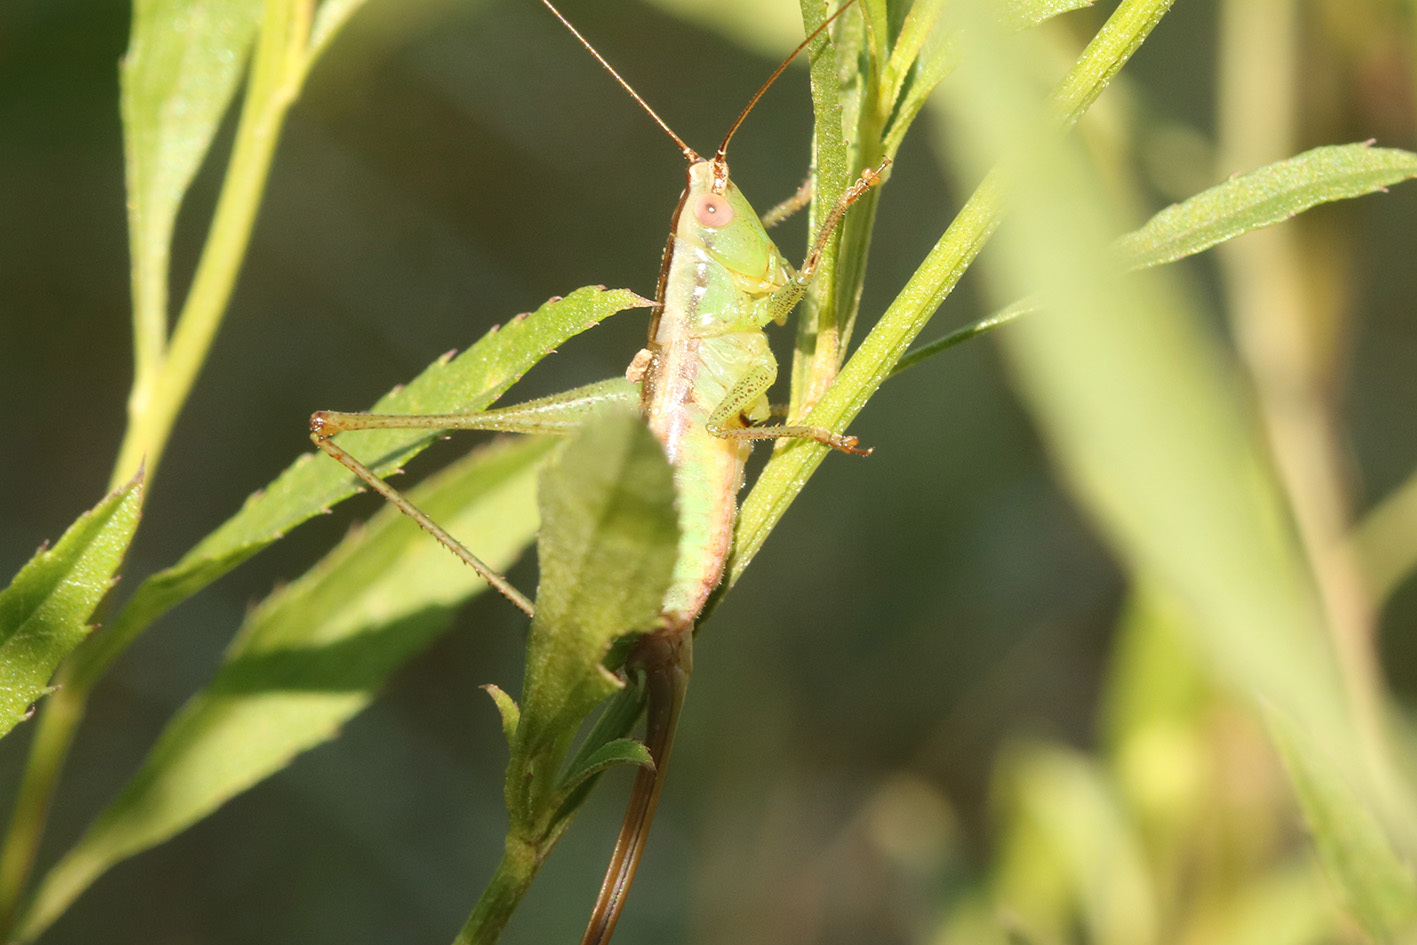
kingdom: Animalia
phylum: Arthropoda
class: Insecta
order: Orthoptera
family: Tettigoniidae
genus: Conocephalus
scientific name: Conocephalus doryphorus
